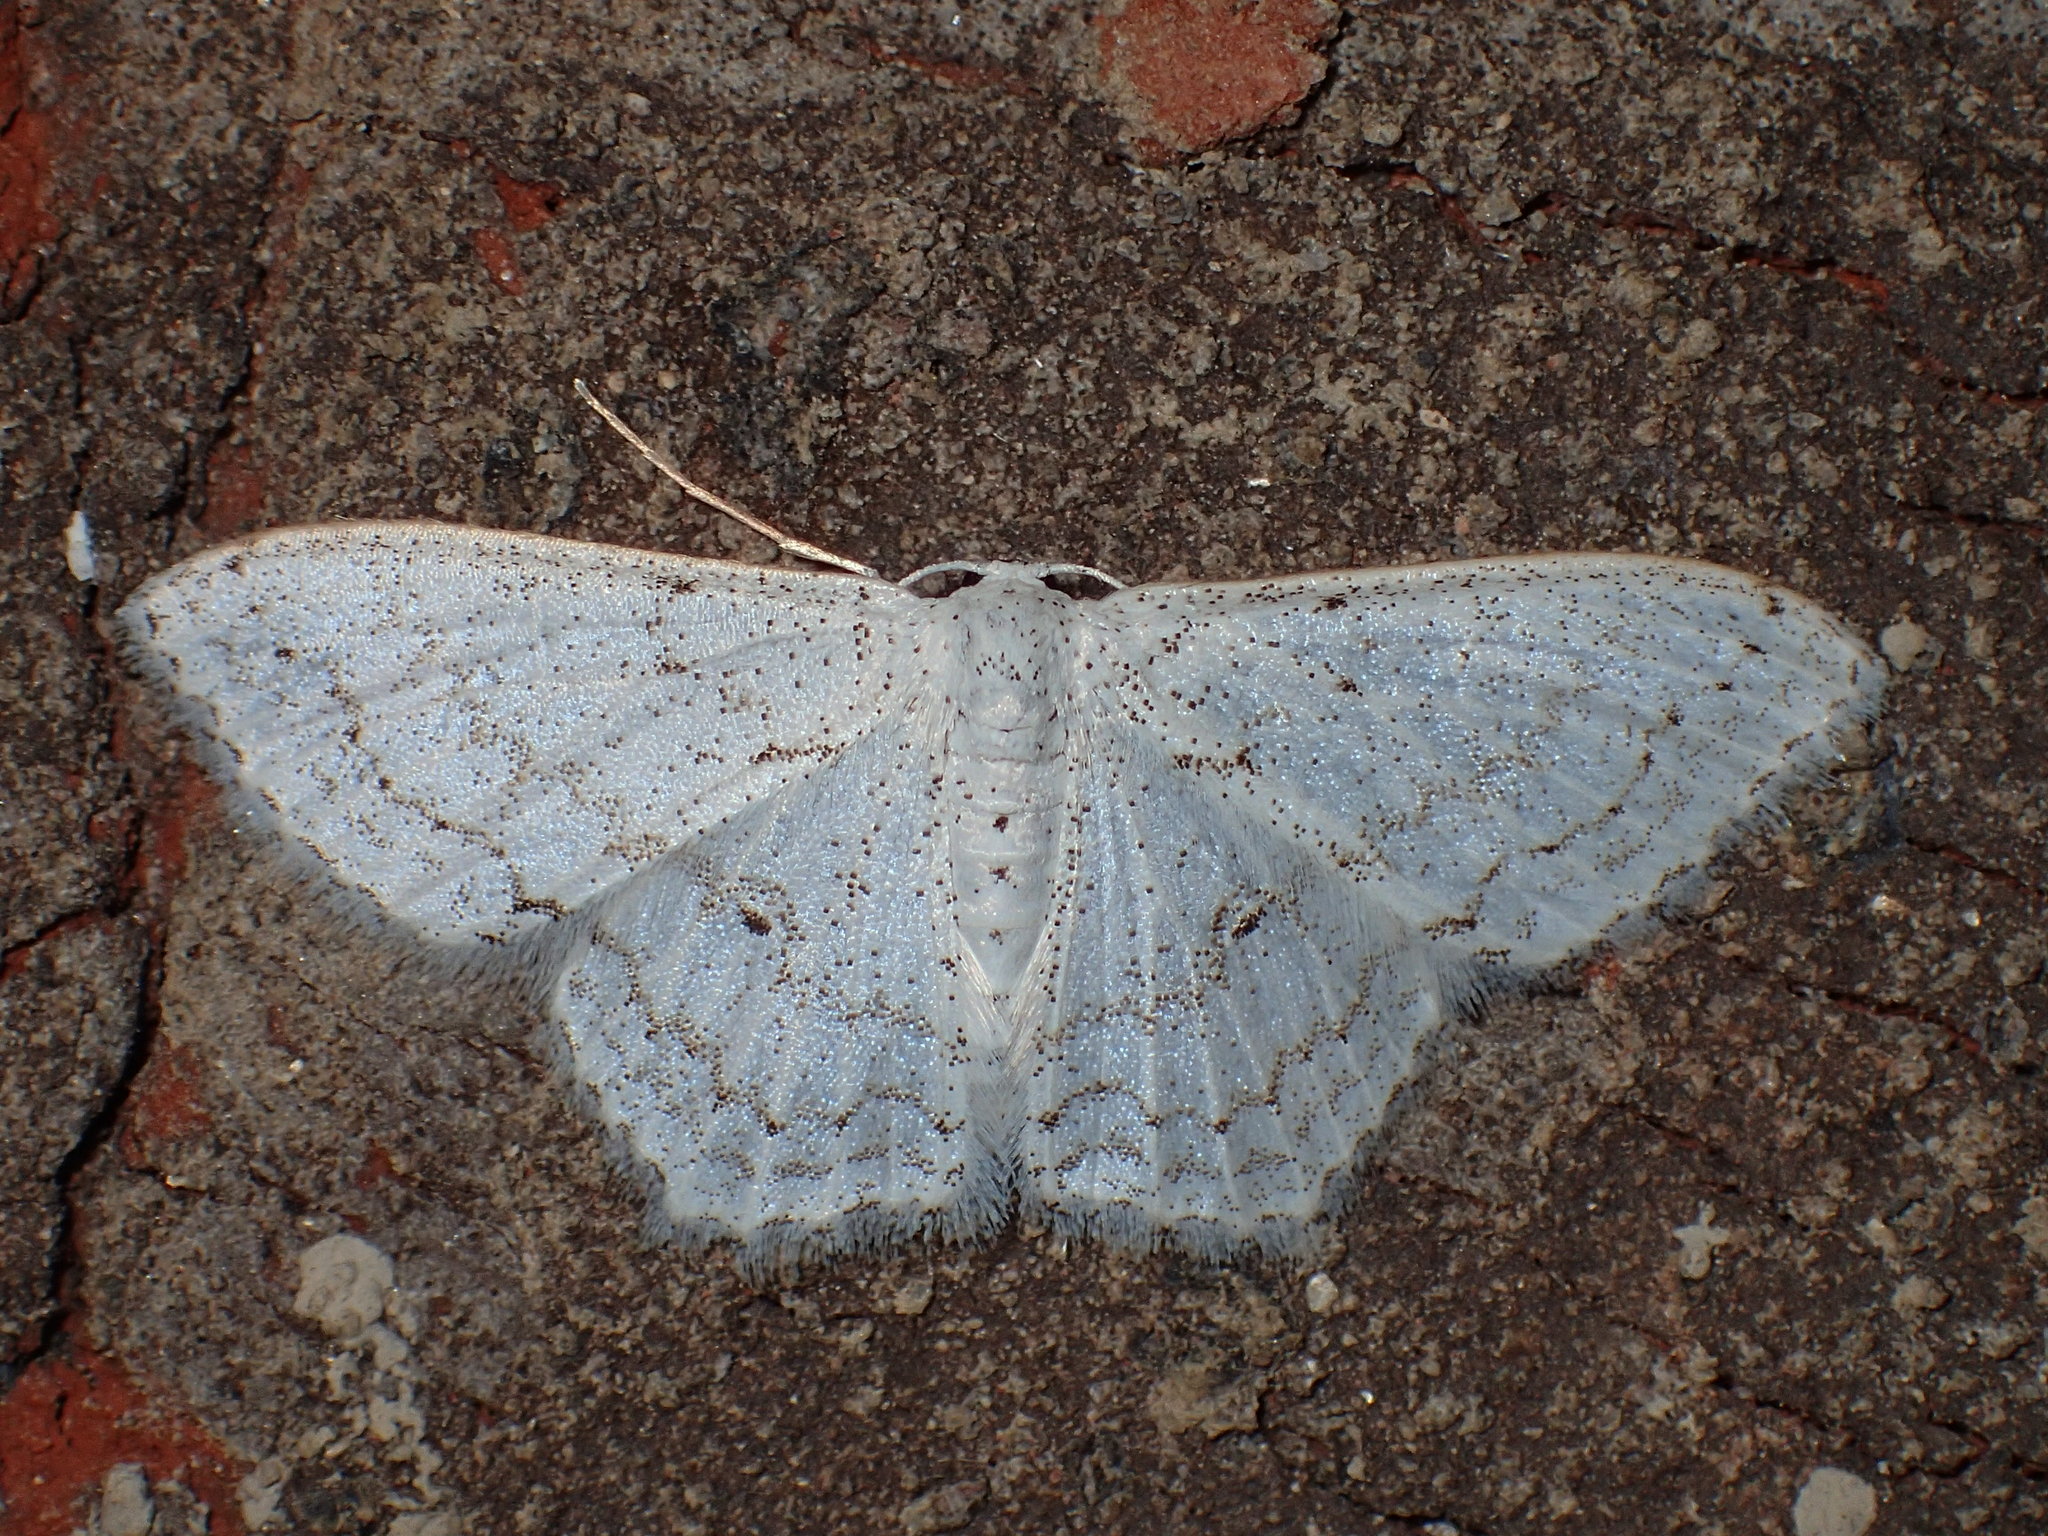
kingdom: Animalia
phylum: Arthropoda
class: Insecta
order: Lepidoptera
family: Geometridae
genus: Idaea
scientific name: Idaea tacturata
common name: Dot-lined wave
